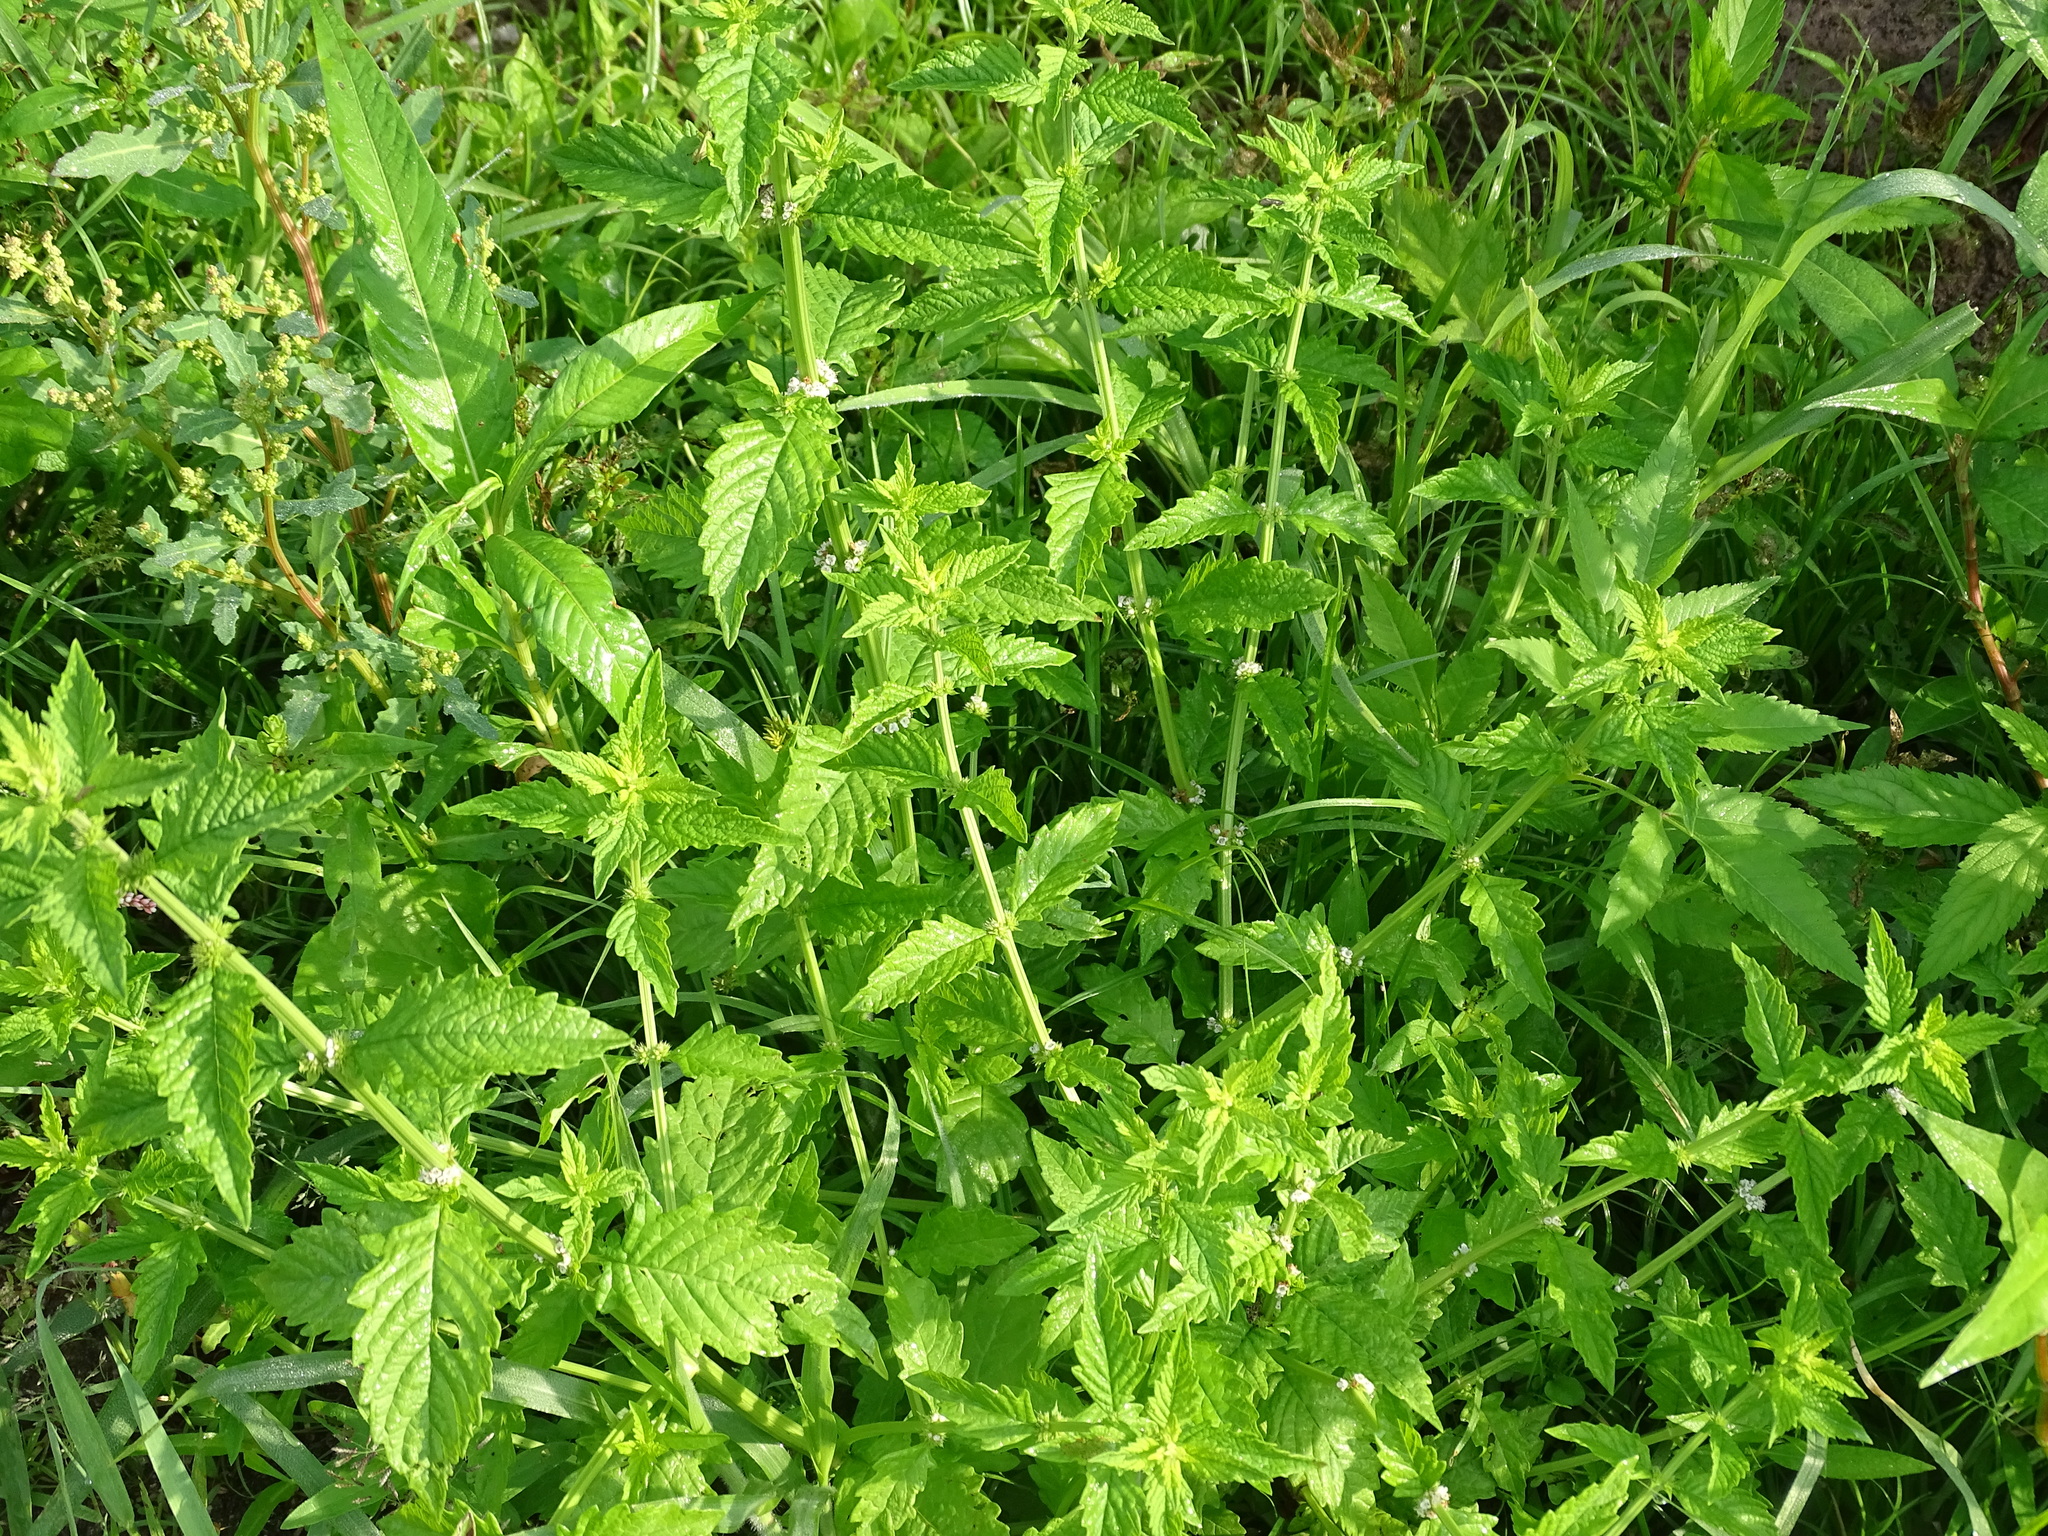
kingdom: Plantae
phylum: Tracheophyta
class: Magnoliopsida
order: Lamiales
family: Lamiaceae
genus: Lycopus
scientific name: Lycopus europaeus
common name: European bugleweed
